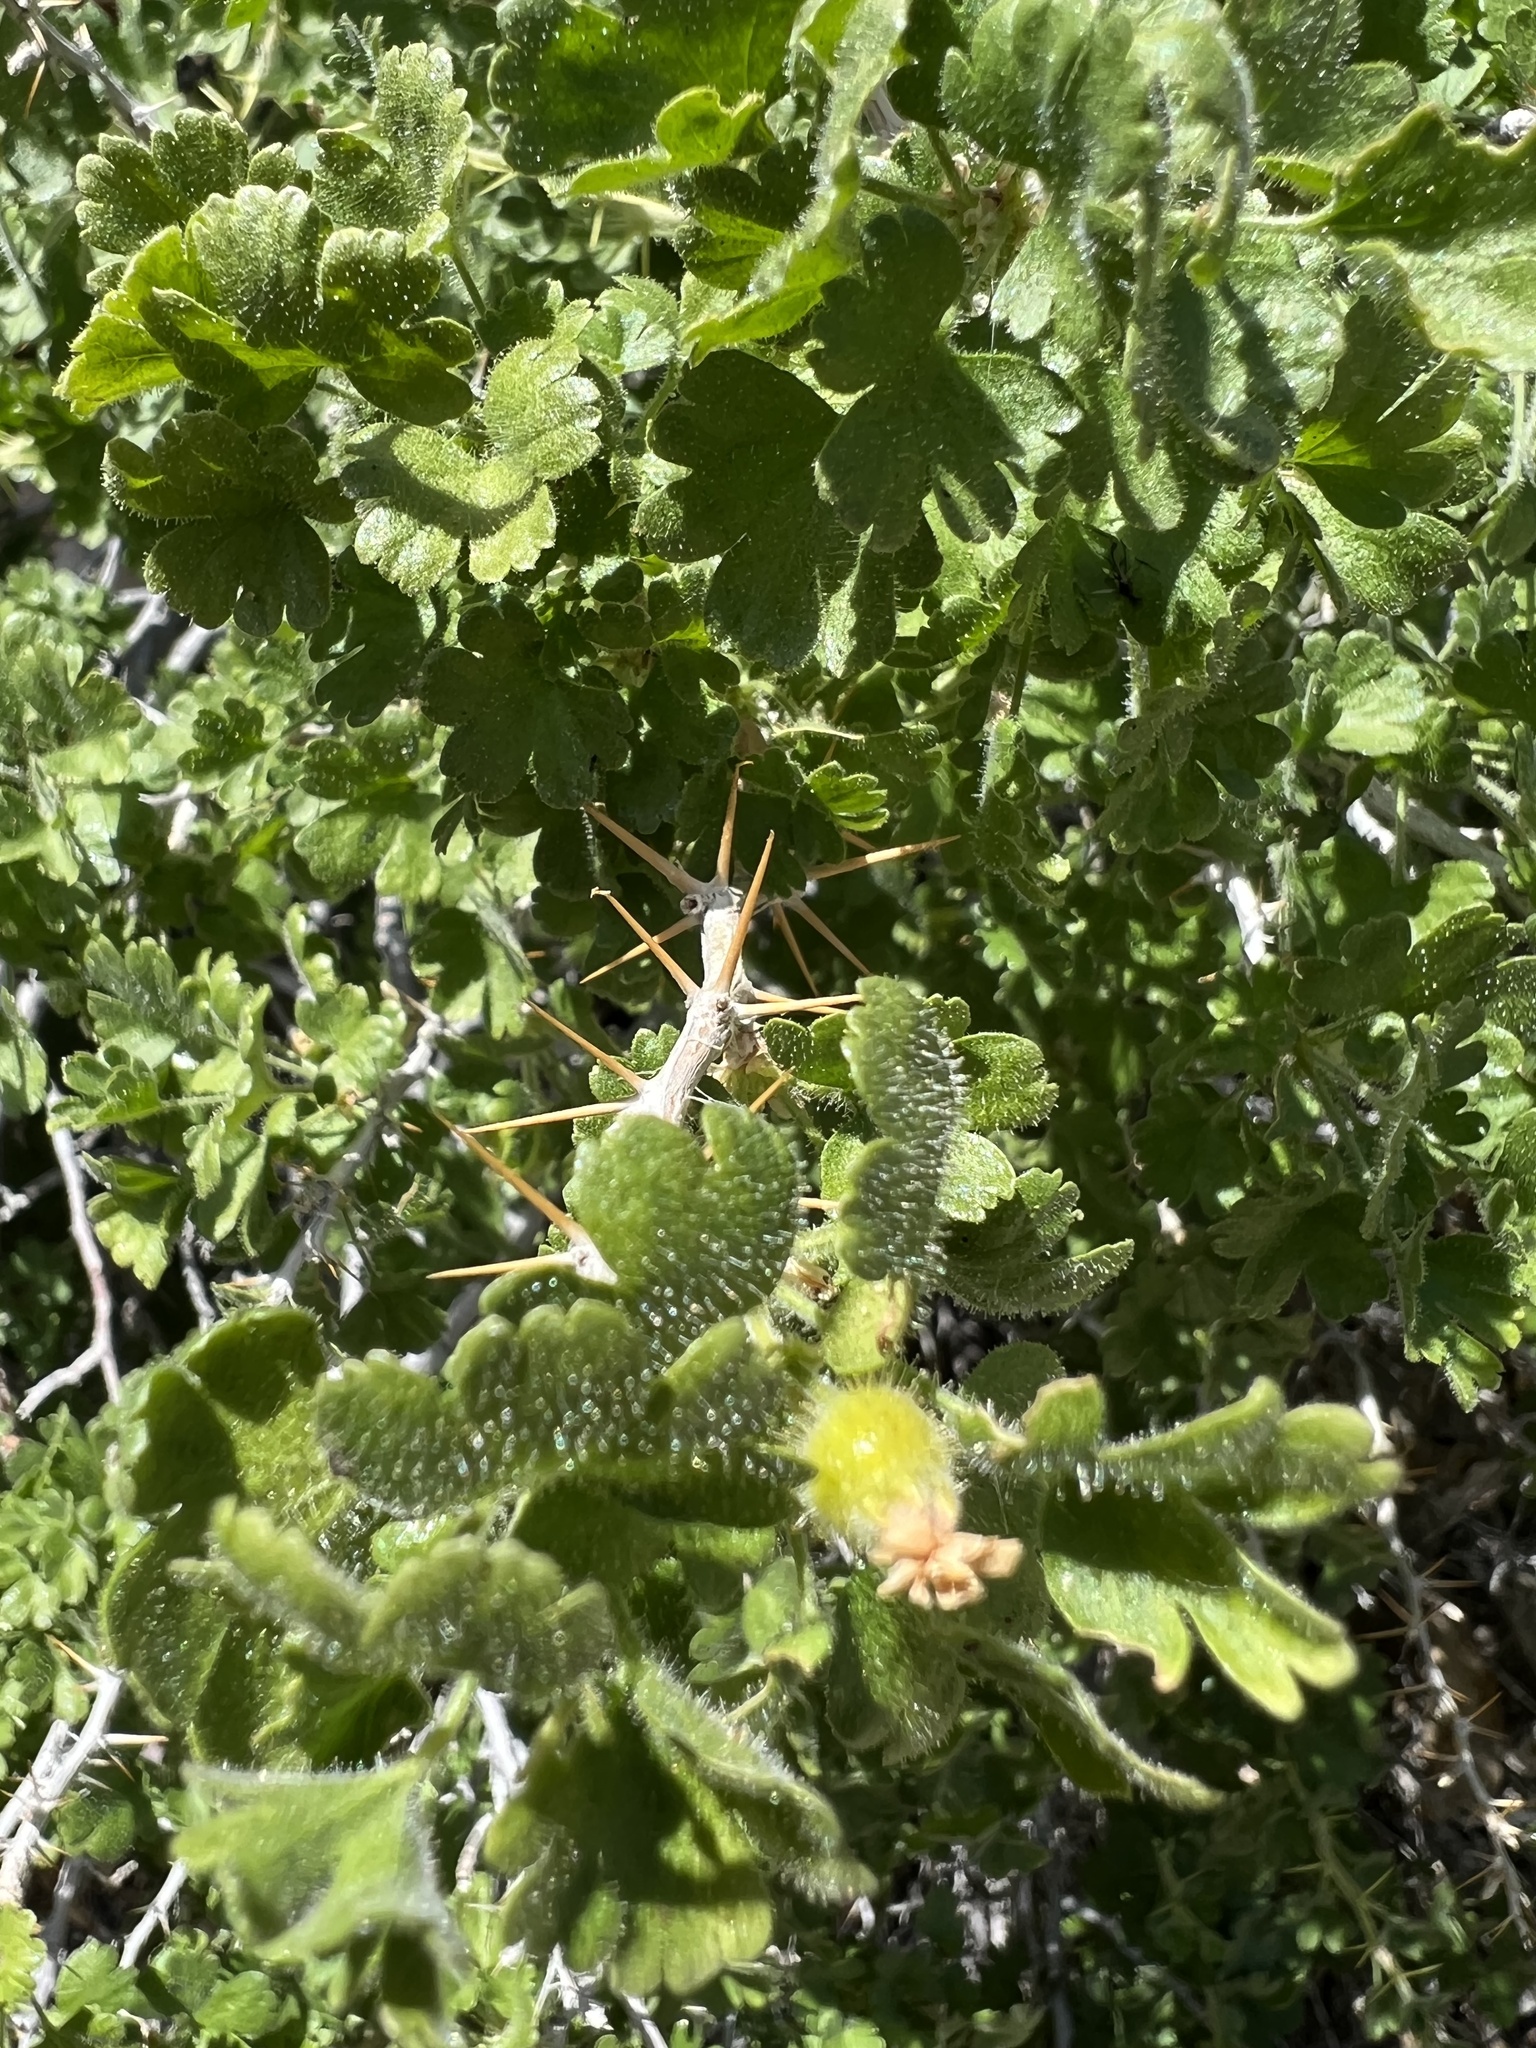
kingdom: Plantae
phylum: Tracheophyta
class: Magnoliopsida
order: Saxifragales
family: Grossulariaceae
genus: Ribes
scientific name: Ribes velutinum
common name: Desert gooseberry
